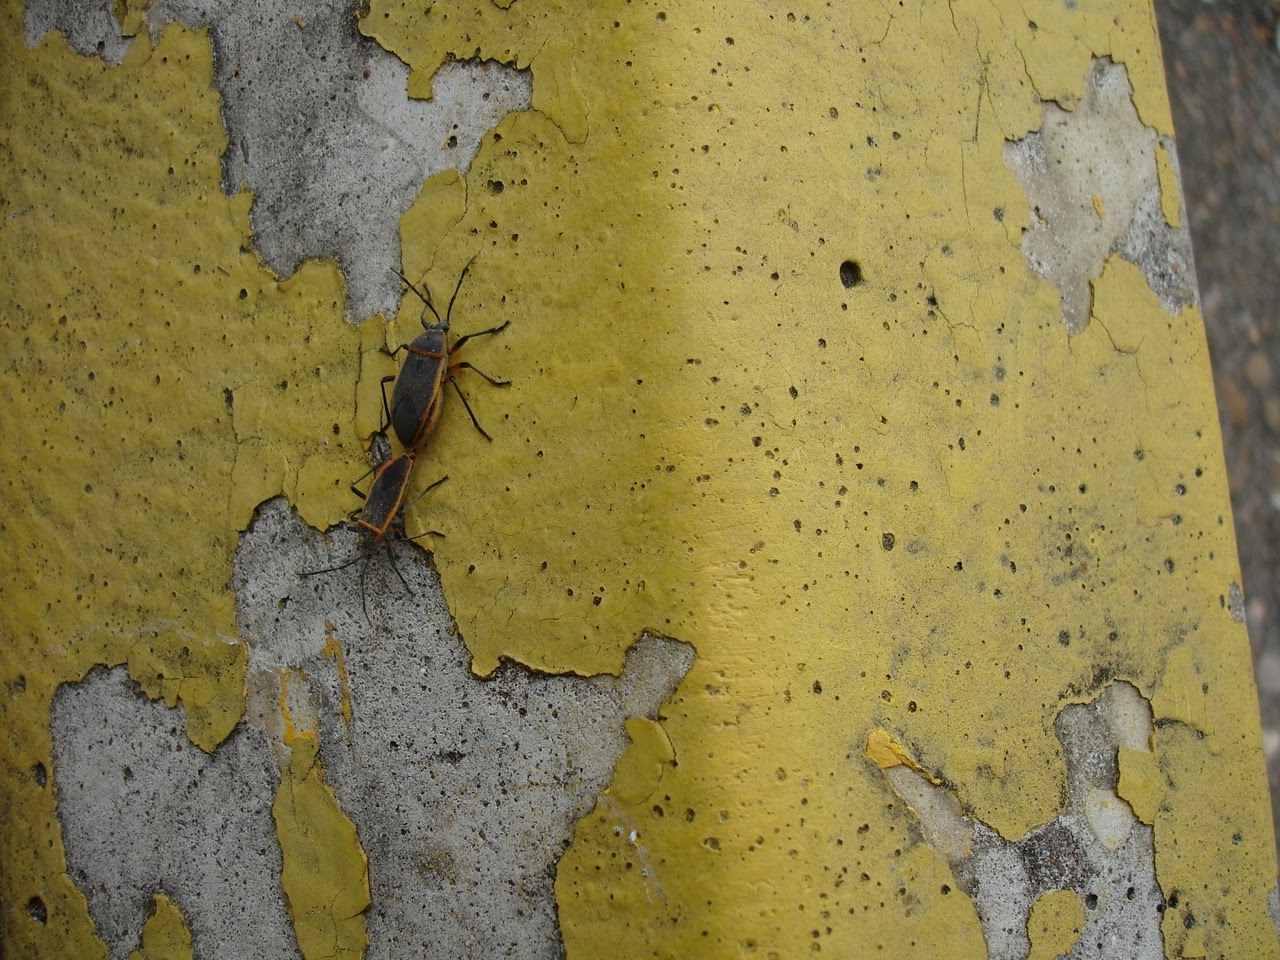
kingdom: Animalia
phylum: Arthropoda
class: Insecta
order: Hemiptera
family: Largidae
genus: Largus
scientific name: Largus succinctus
